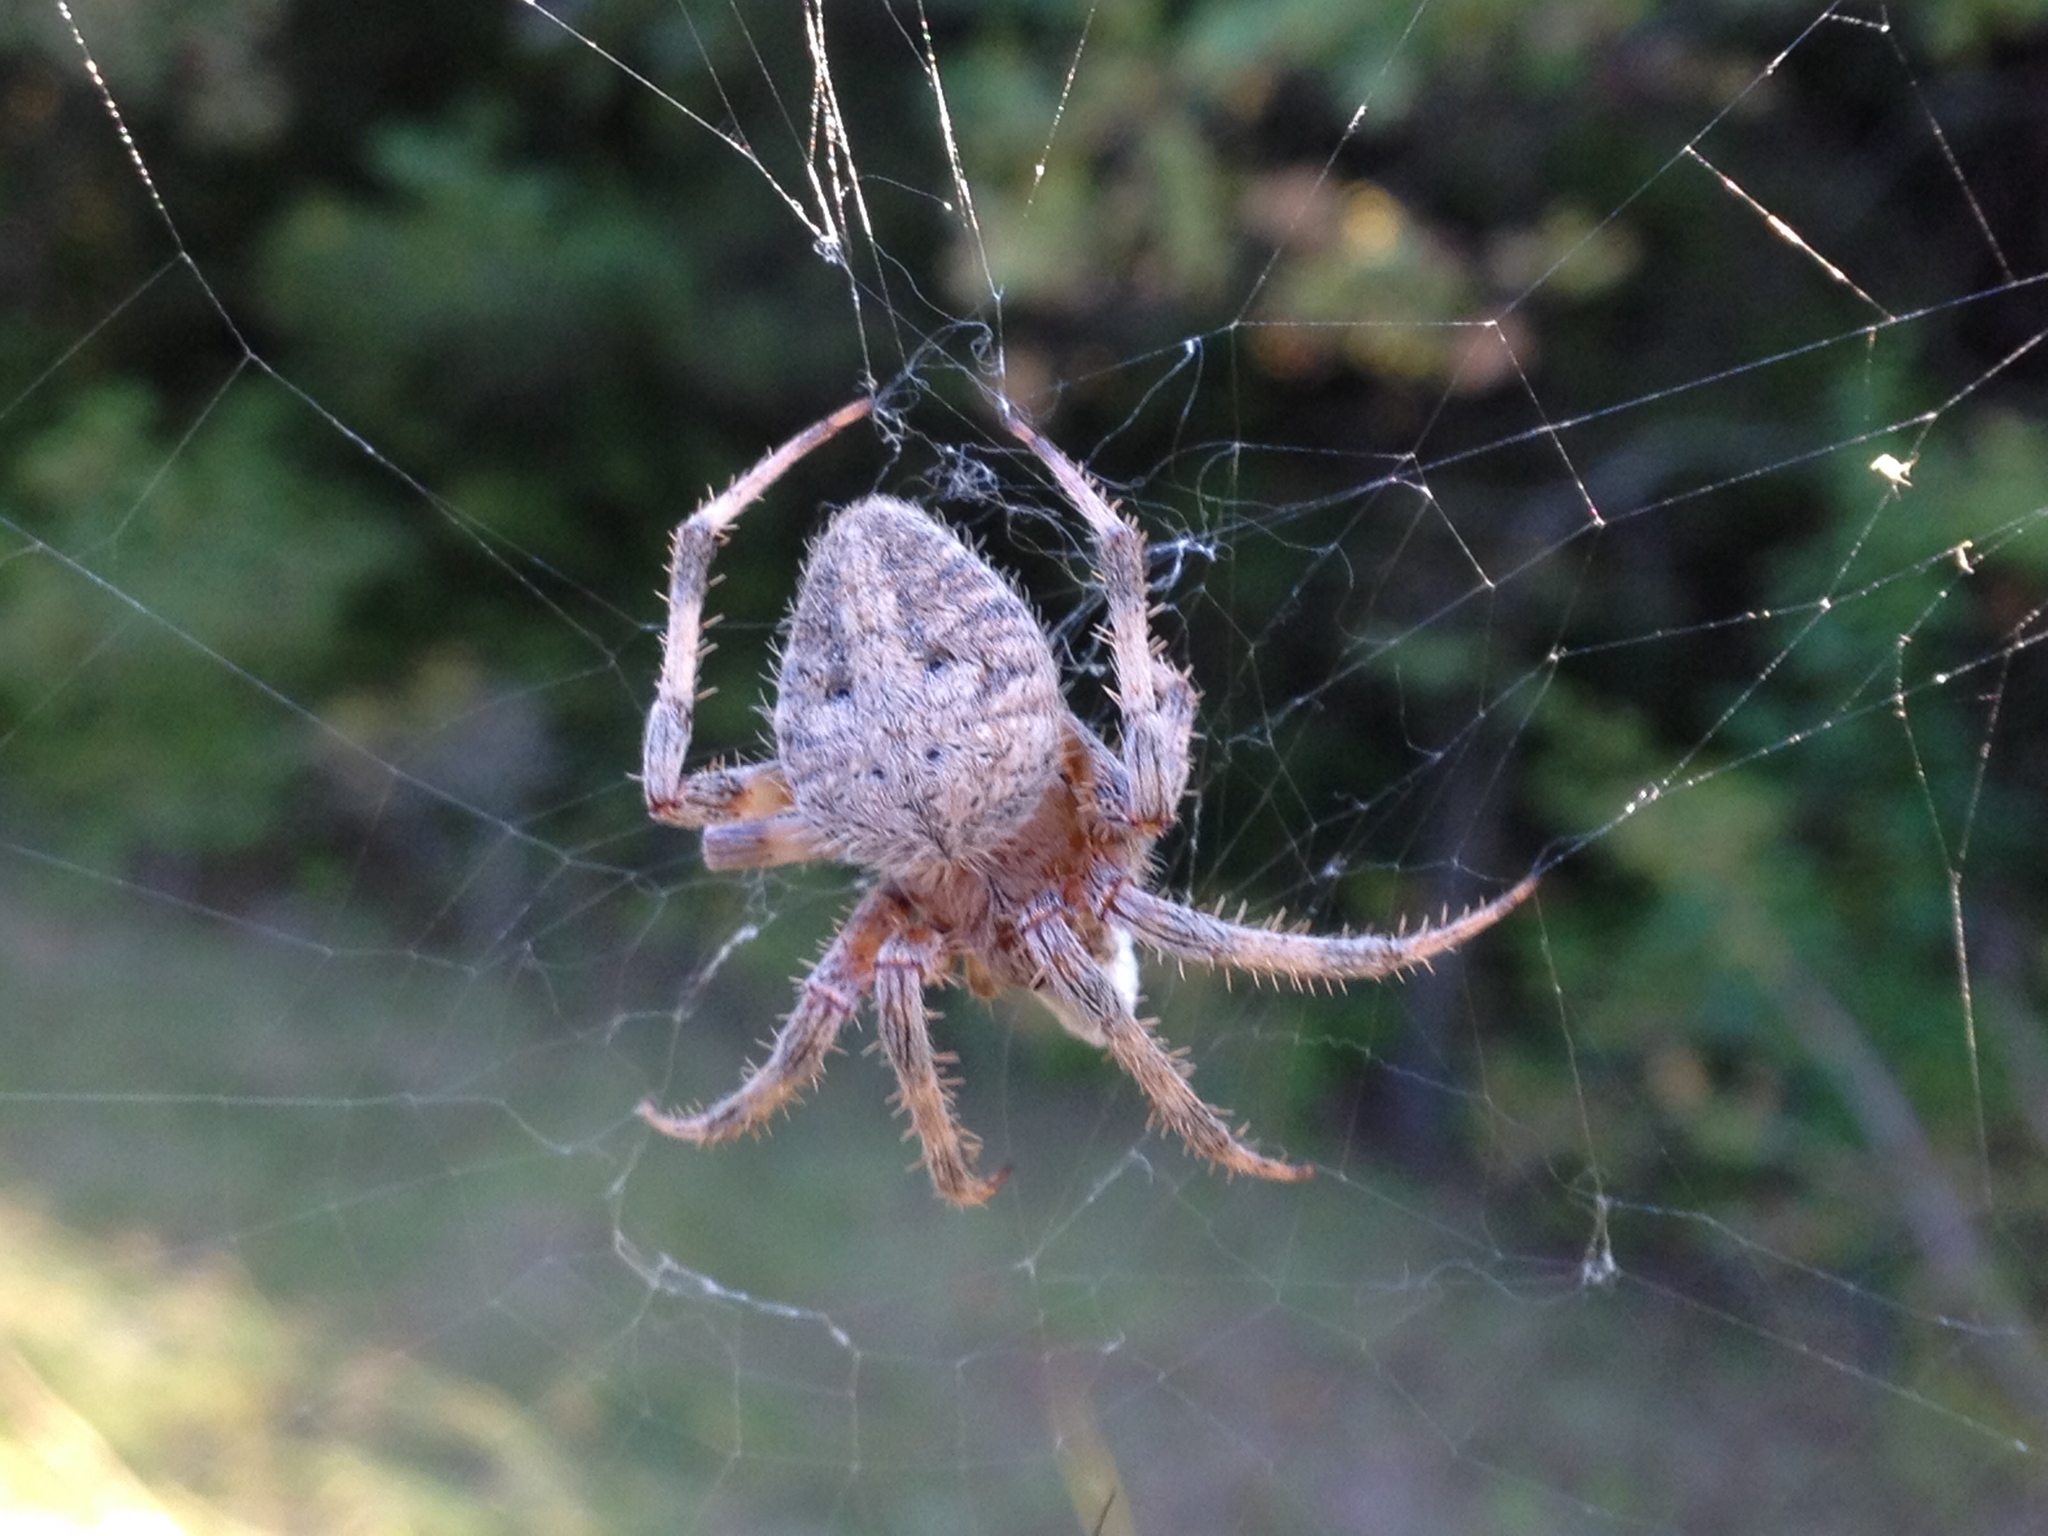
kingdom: Animalia
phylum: Arthropoda
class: Arachnida
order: Araneae
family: Araneidae
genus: Neoscona
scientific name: Neoscona crucifera
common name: Spotted orbweaver
